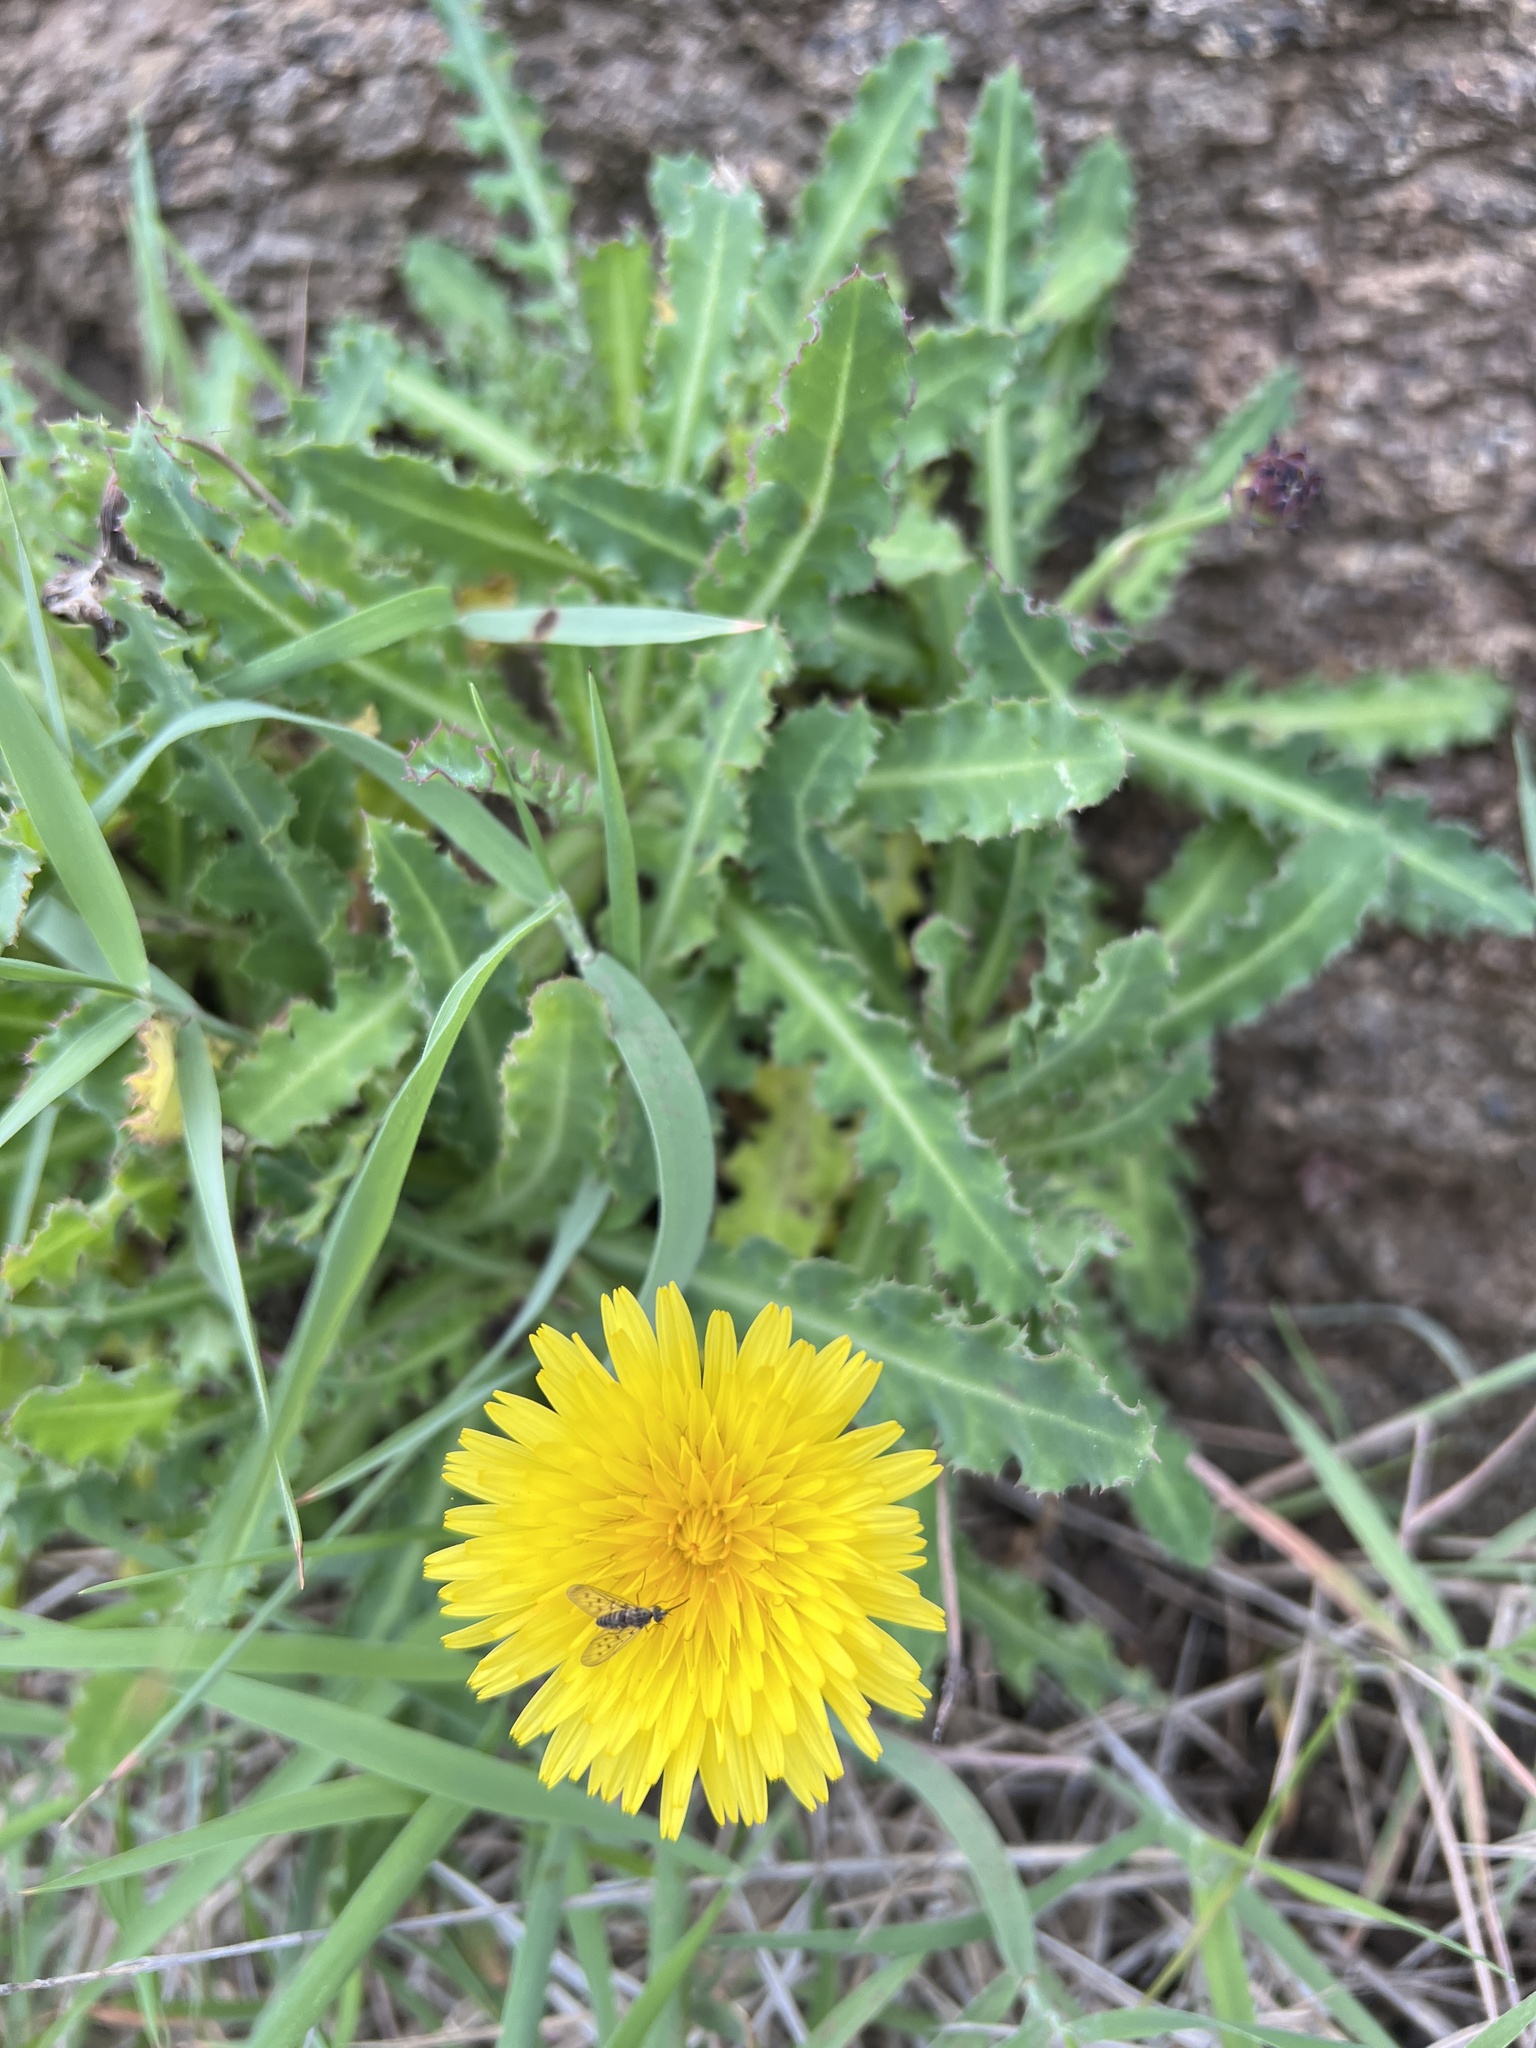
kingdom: Plantae
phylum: Tracheophyta
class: Magnoliopsida
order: Asterales
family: Asteraceae
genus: Reichardia
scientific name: Reichardia ligulata
